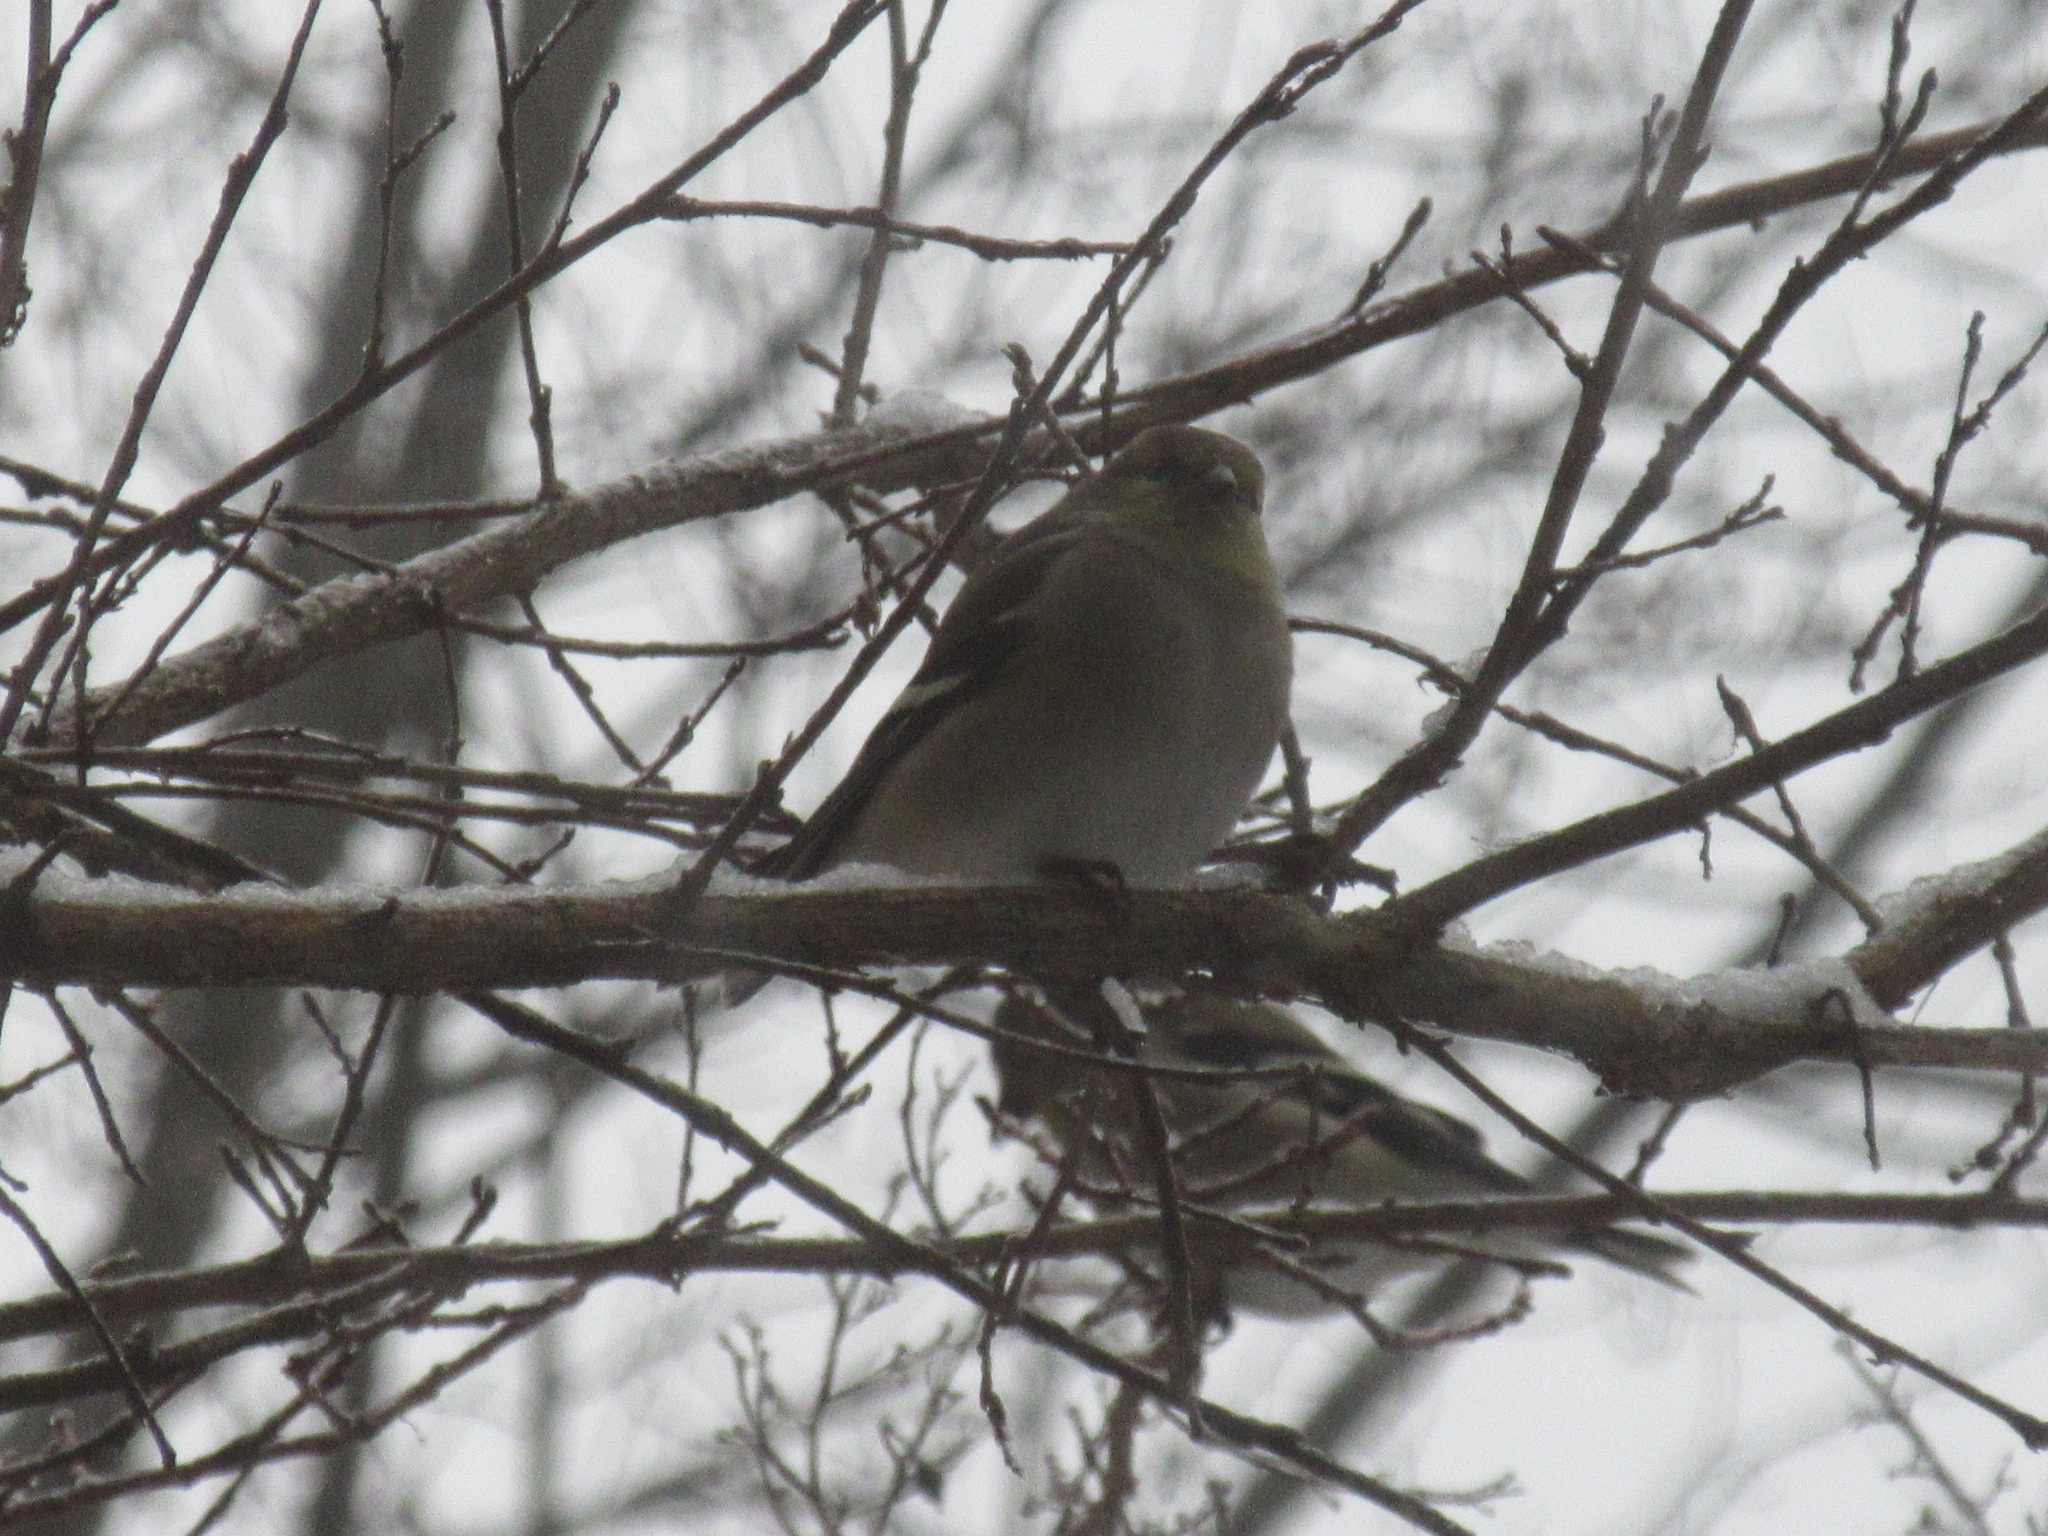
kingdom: Animalia
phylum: Chordata
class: Aves
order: Passeriformes
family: Fringillidae
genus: Spinus
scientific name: Spinus tristis
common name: American goldfinch
